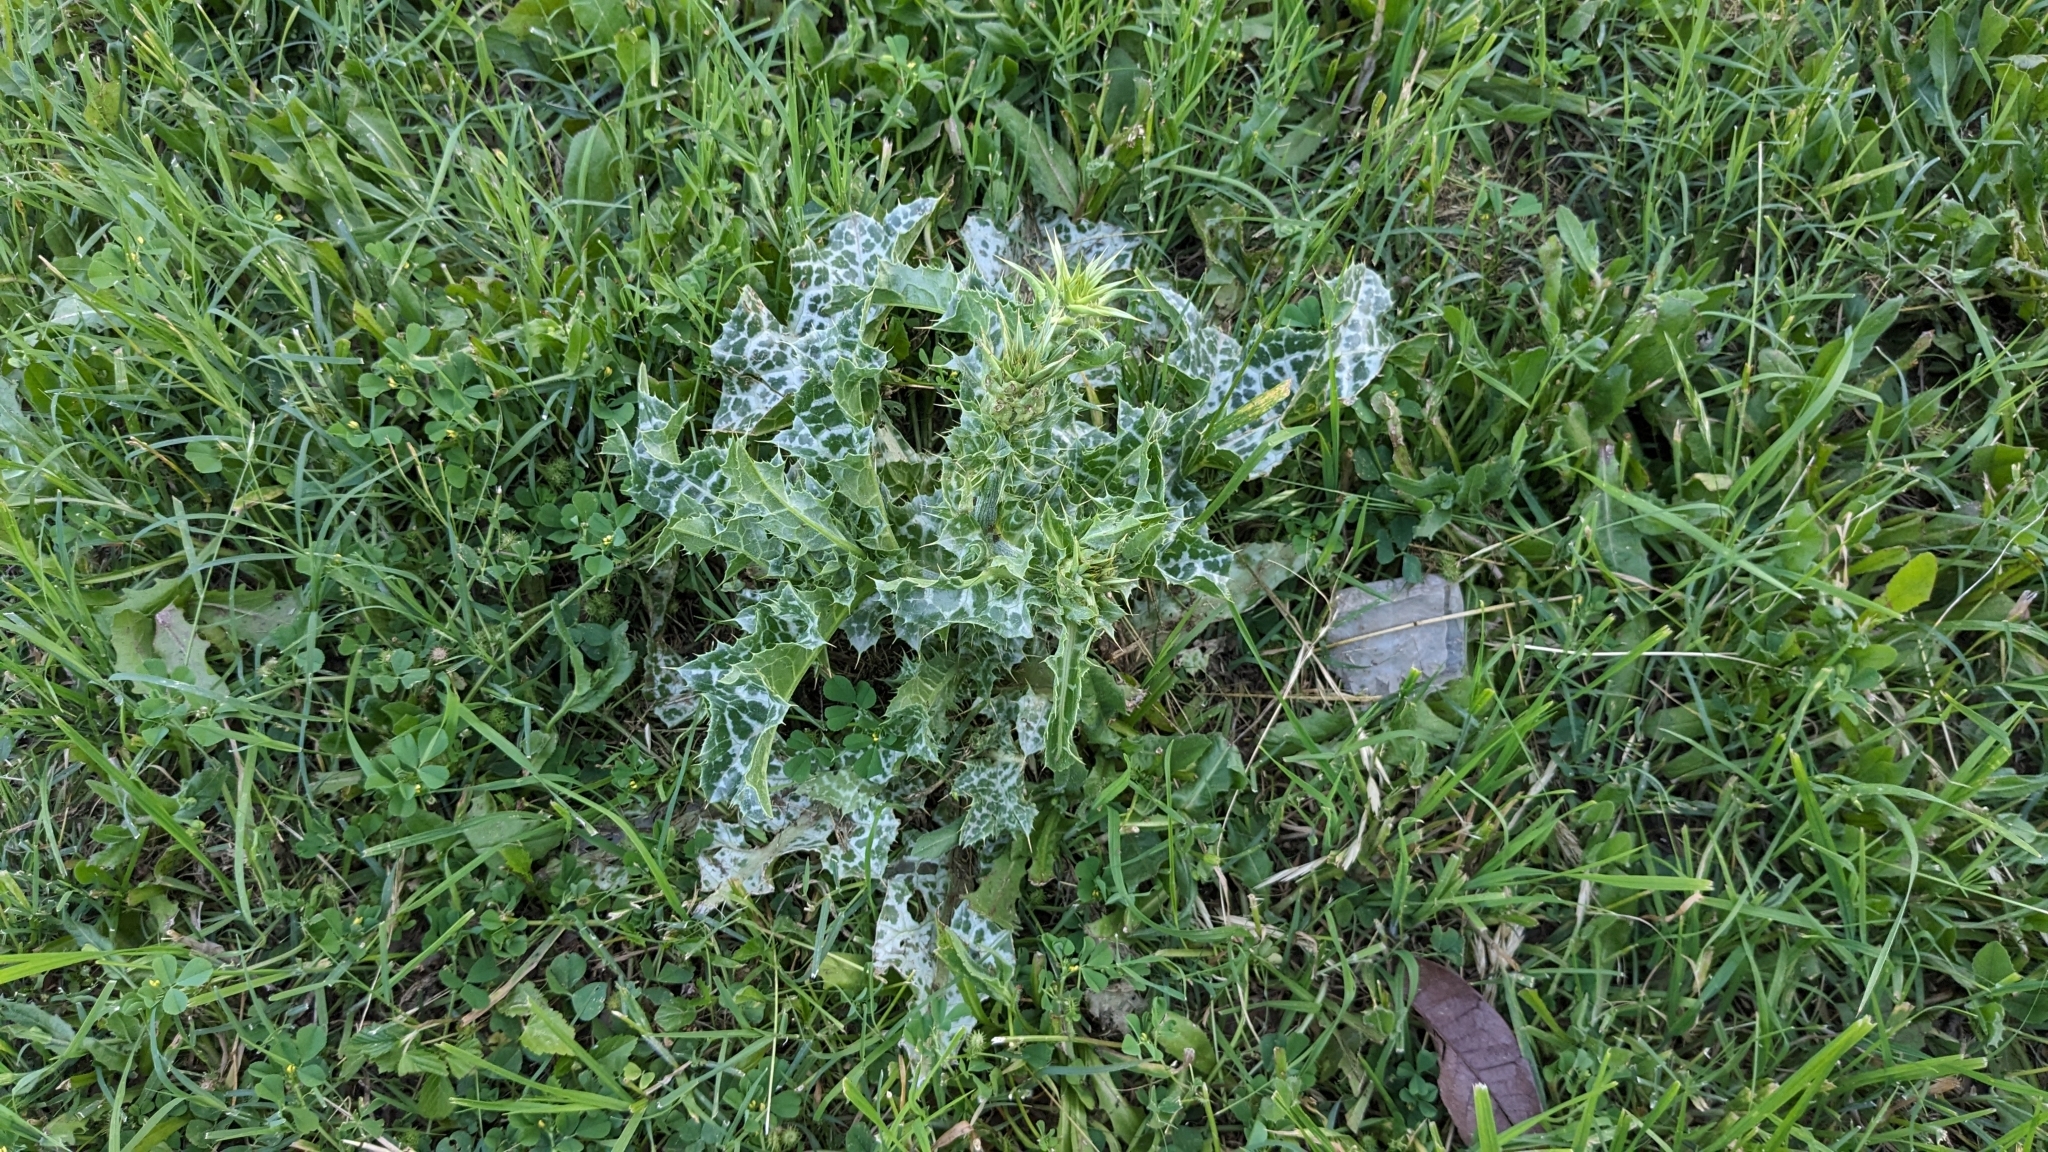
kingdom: Plantae
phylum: Tracheophyta
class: Magnoliopsida
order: Asterales
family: Asteraceae
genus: Silybum
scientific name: Silybum marianum
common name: Milk thistle
